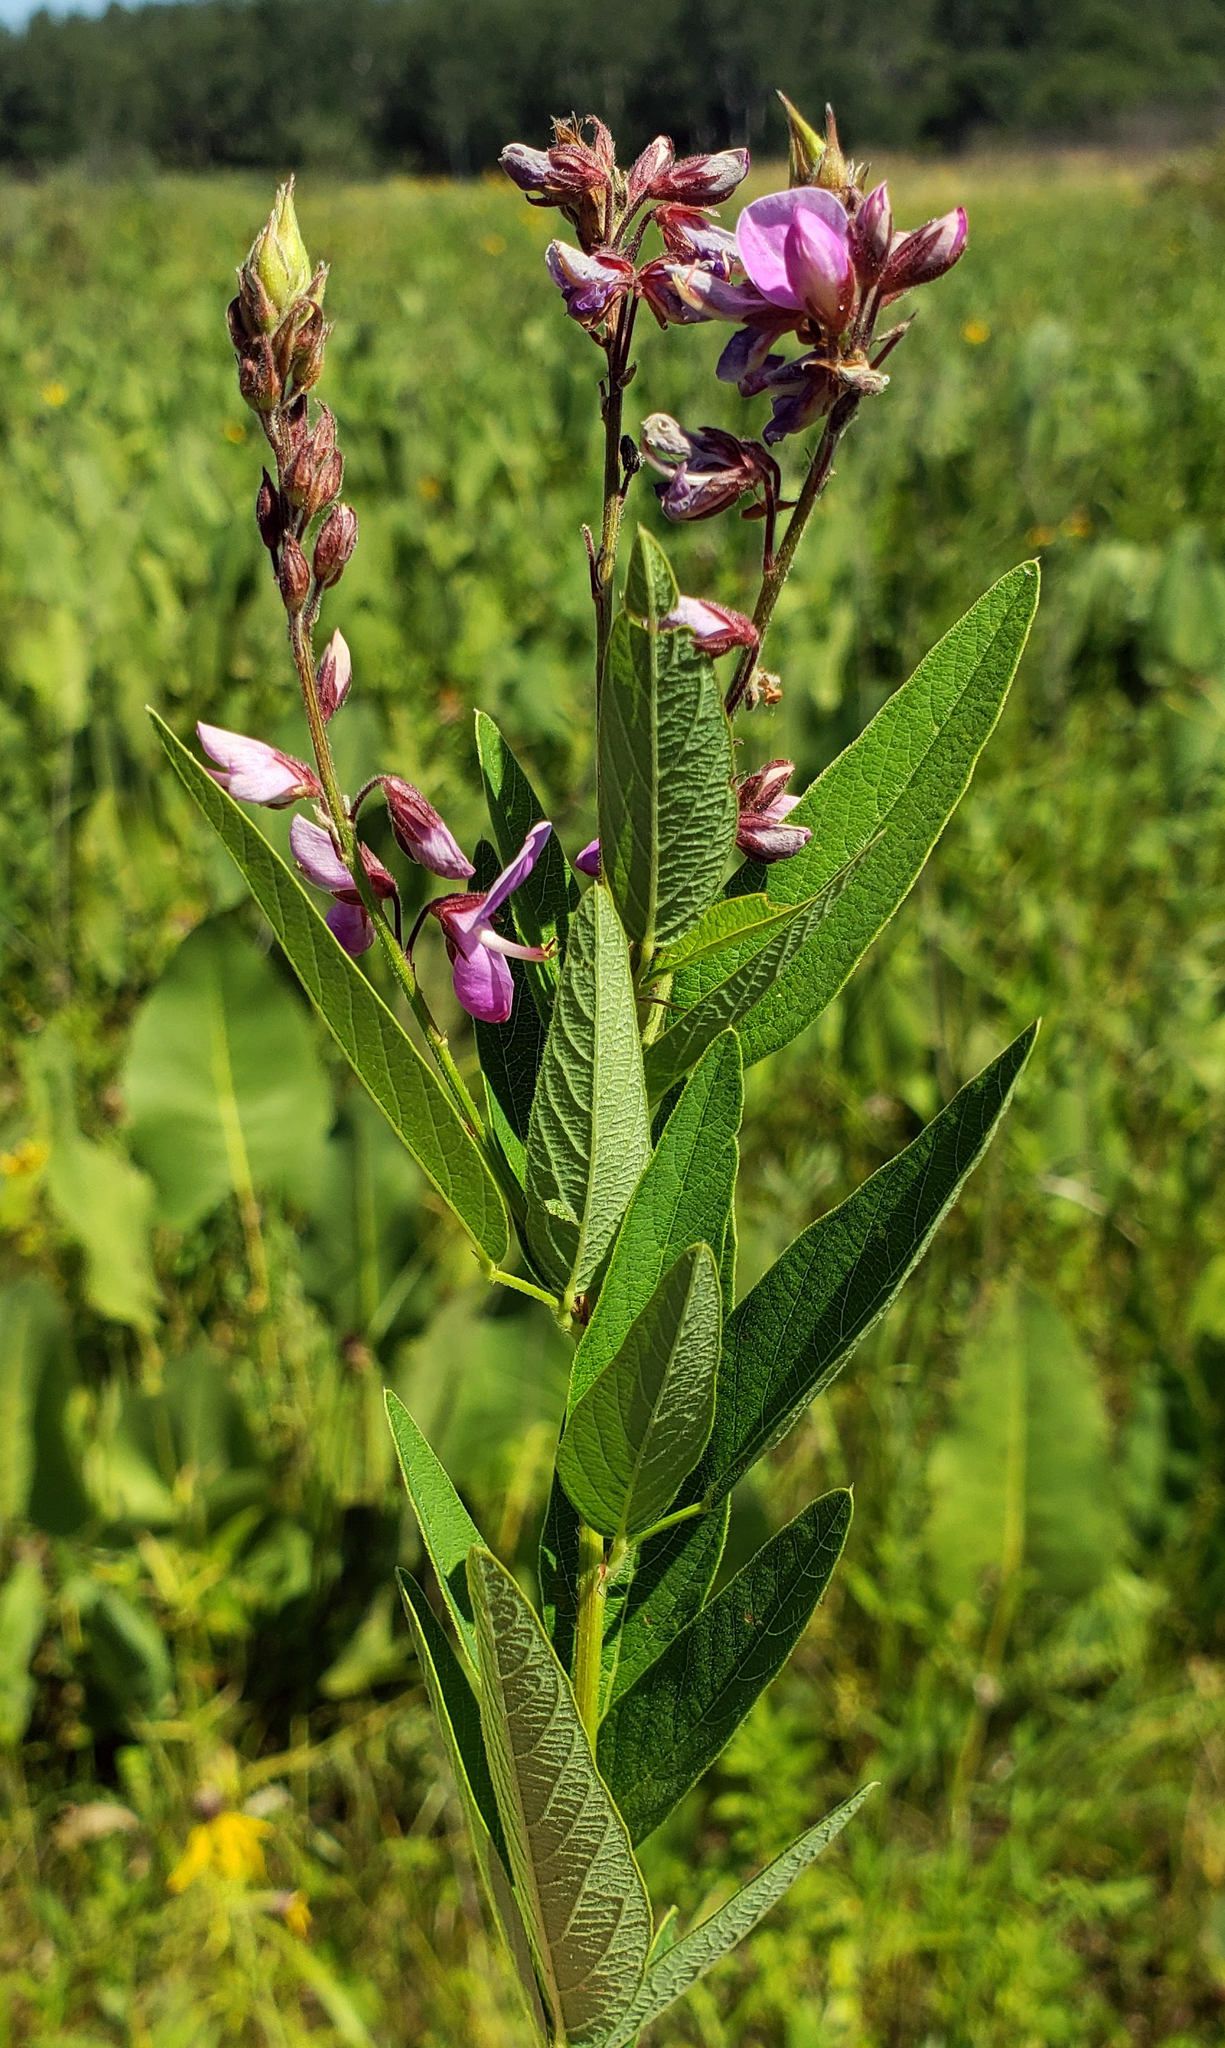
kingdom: Plantae
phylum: Tracheophyta
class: Magnoliopsida
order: Fabales
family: Fabaceae
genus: Desmodium
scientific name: Desmodium canadense
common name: Canada tick-trefoil
